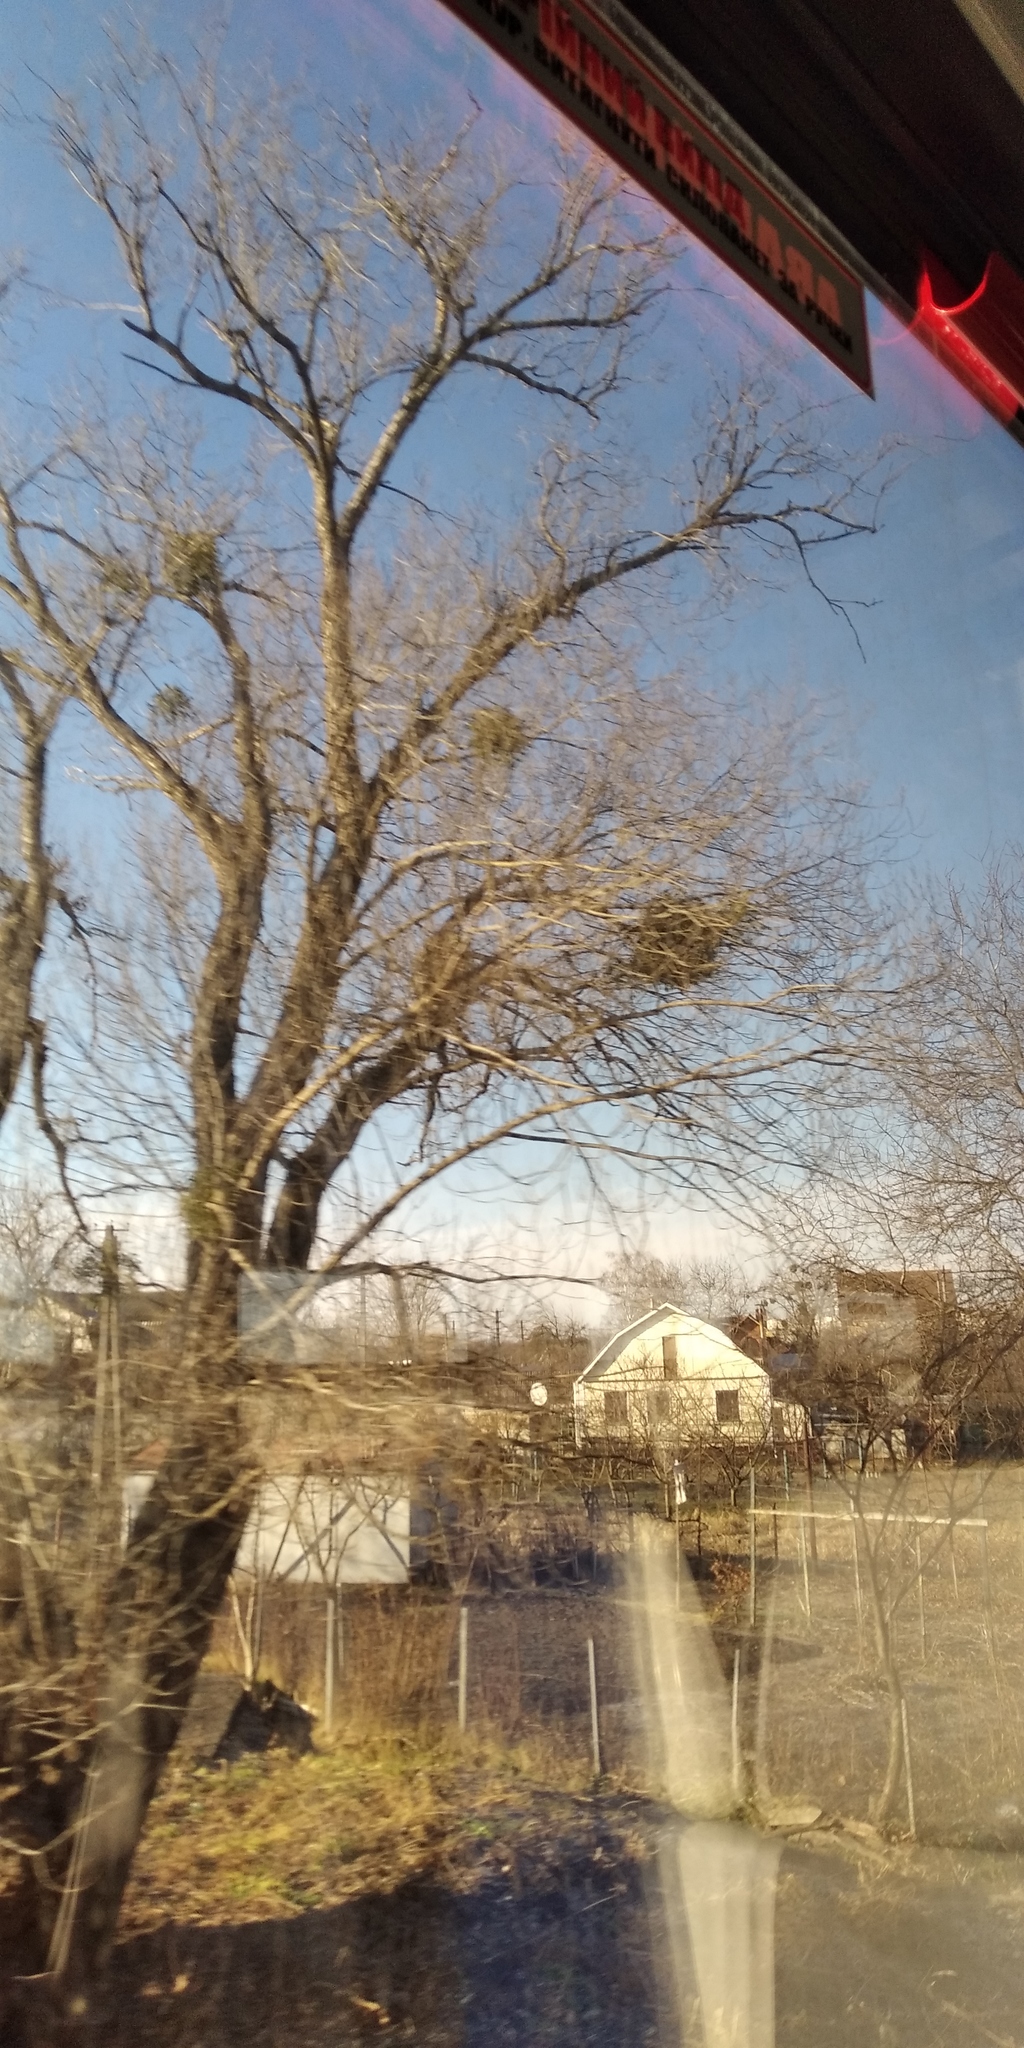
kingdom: Plantae
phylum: Tracheophyta
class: Magnoliopsida
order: Santalales
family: Viscaceae
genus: Viscum
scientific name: Viscum album
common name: Mistletoe
